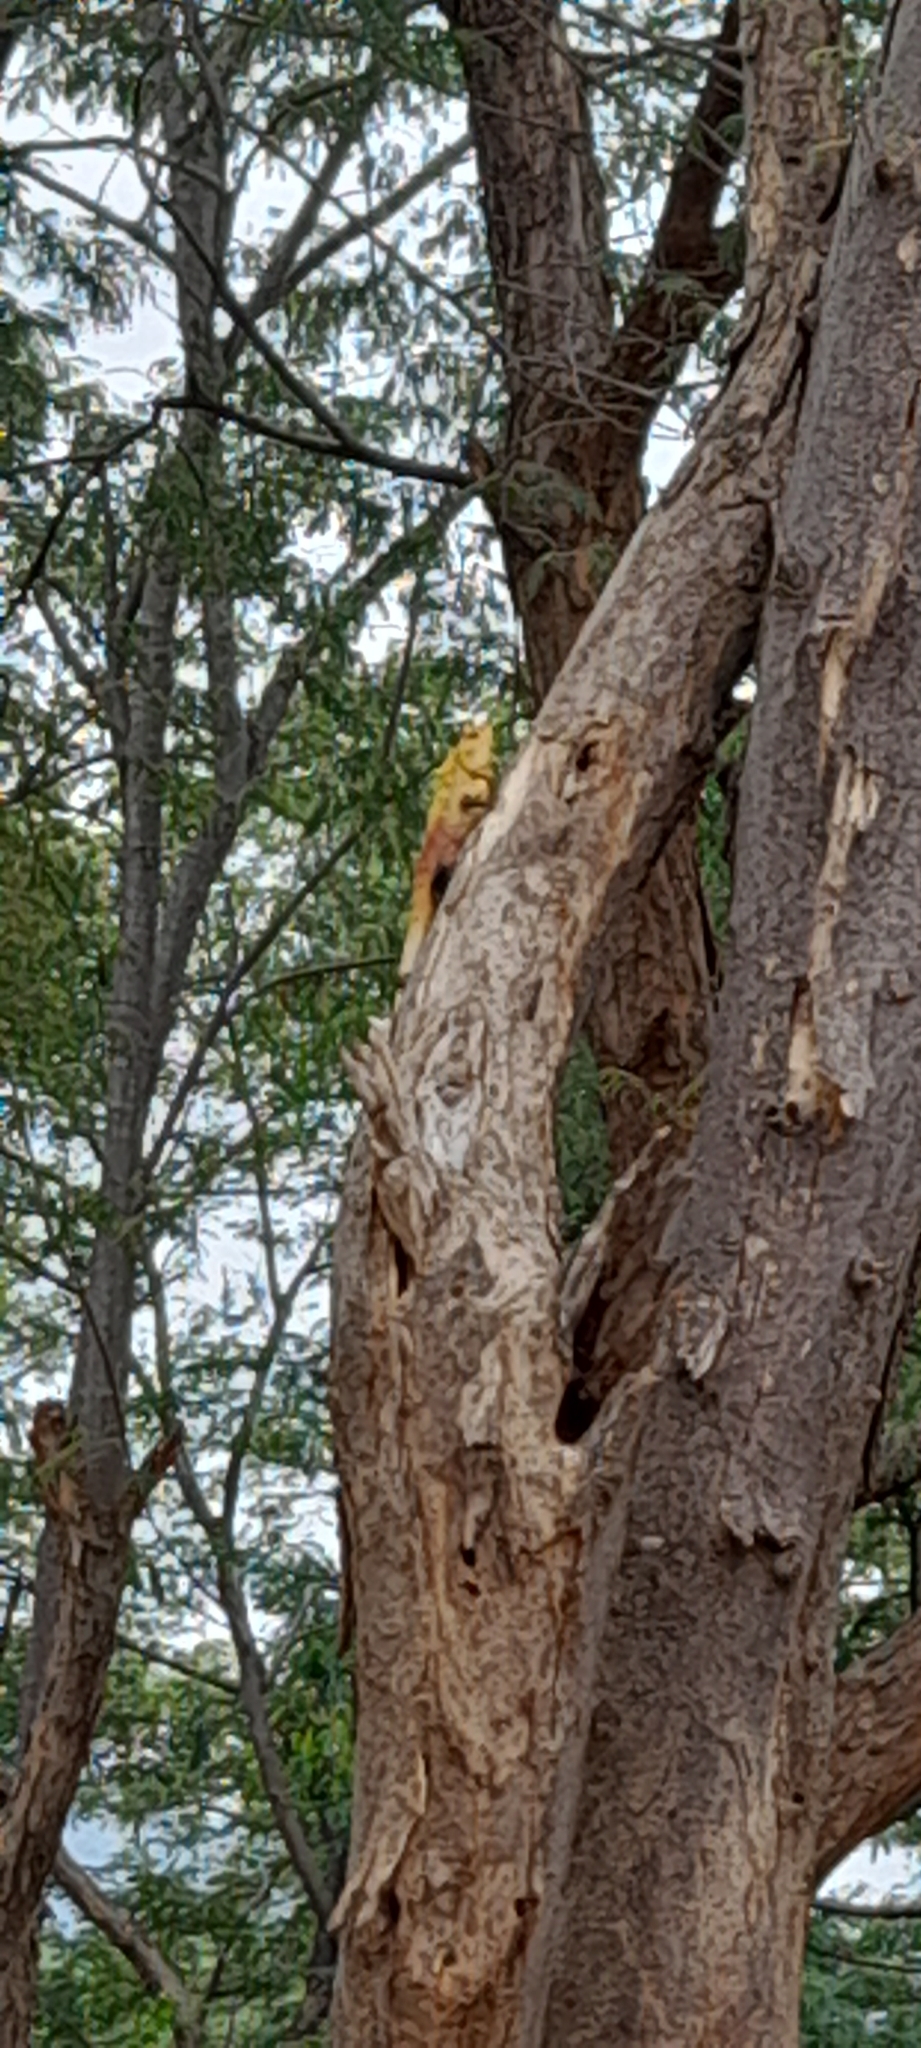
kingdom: Animalia
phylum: Chordata
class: Squamata
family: Agamidae
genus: Calotes
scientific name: Calotes versicolor
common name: Oriental garden lizard
